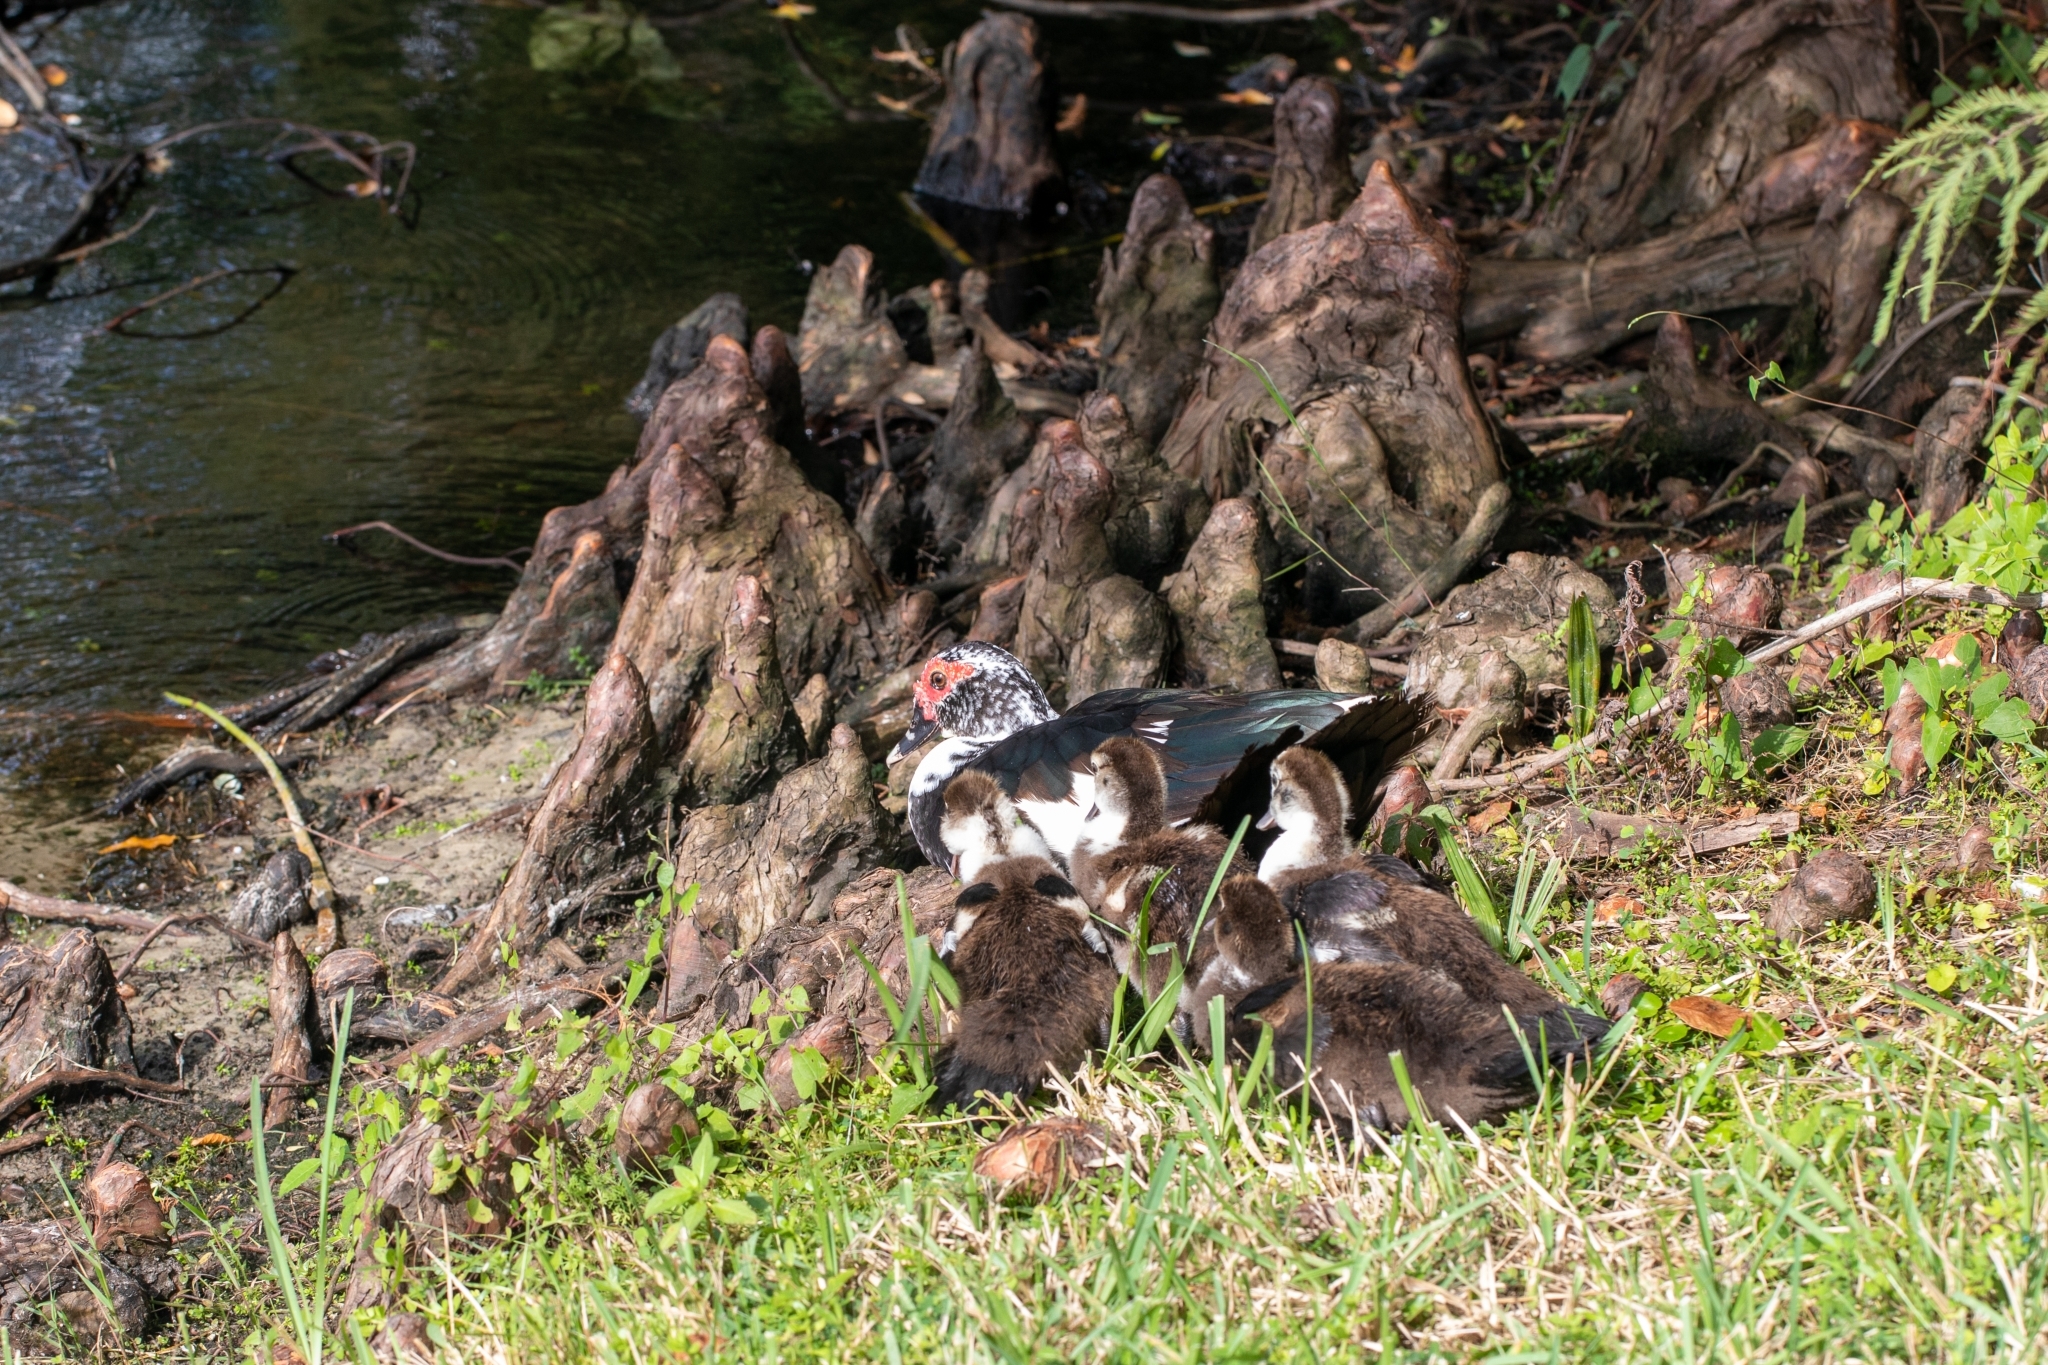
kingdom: Animalia
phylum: Chordata
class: Aves
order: Anseriformes
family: Anatidae
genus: Cairina
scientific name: Cairina moschata
